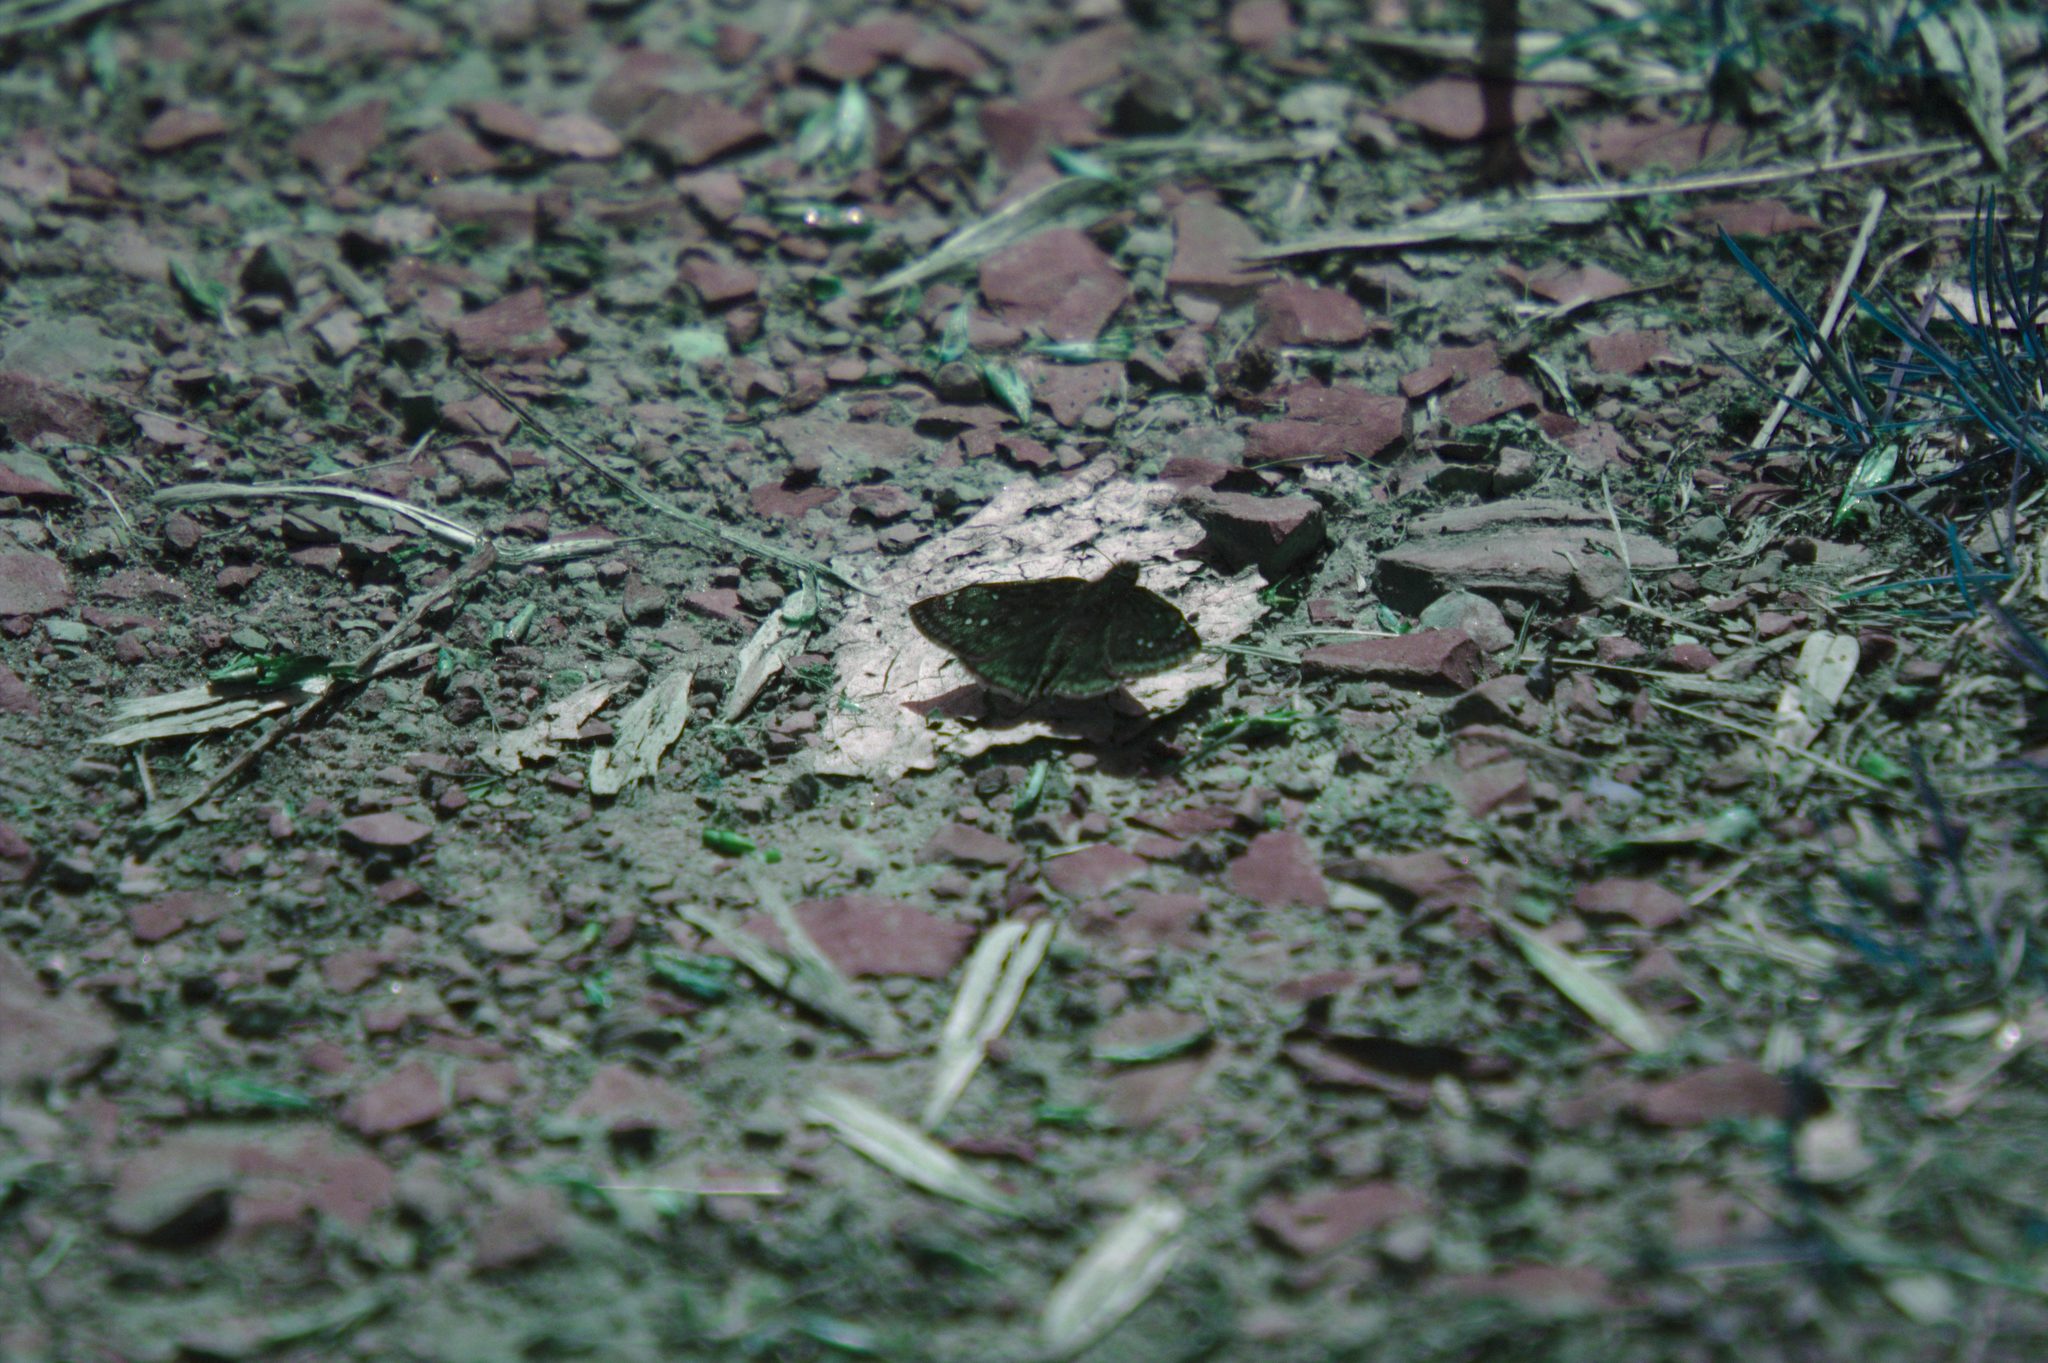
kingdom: Animalia
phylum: Arthropoda
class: Insecta
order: Lepidoptera
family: Hesperiidae
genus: Erynnis
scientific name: Erynnis juvenalis
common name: Juvenal's duskywing
